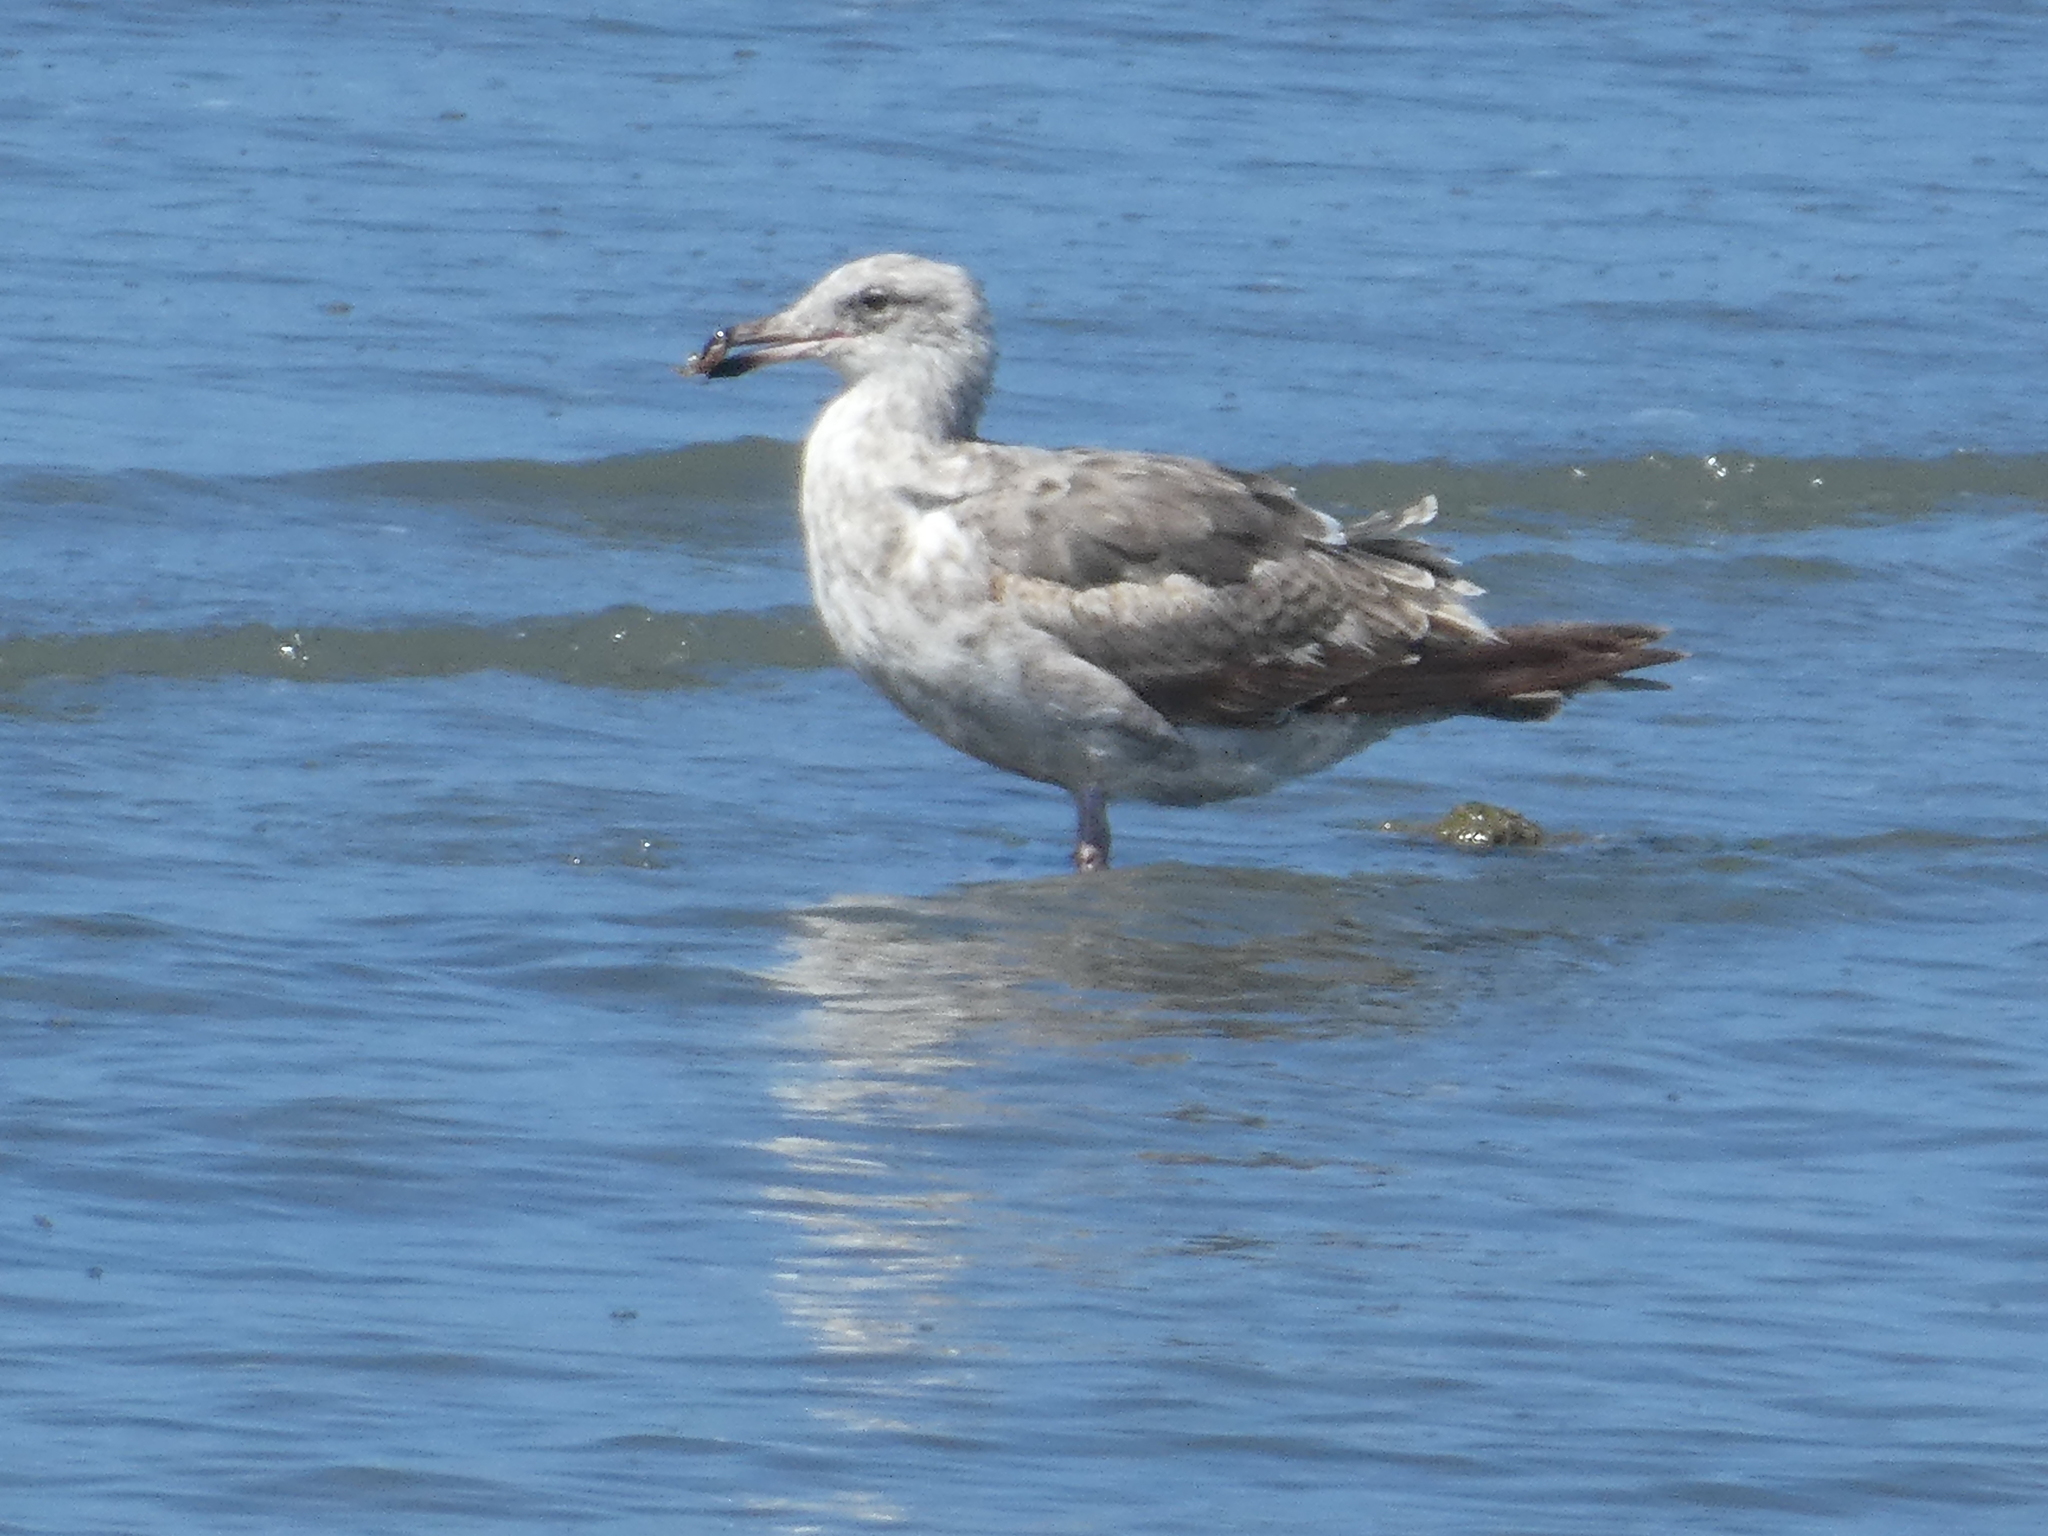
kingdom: Animalia
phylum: Chordata
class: Aves
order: Charadriiformes
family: Laridae
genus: Larus
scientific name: Larus occidentalis
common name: Western gull
